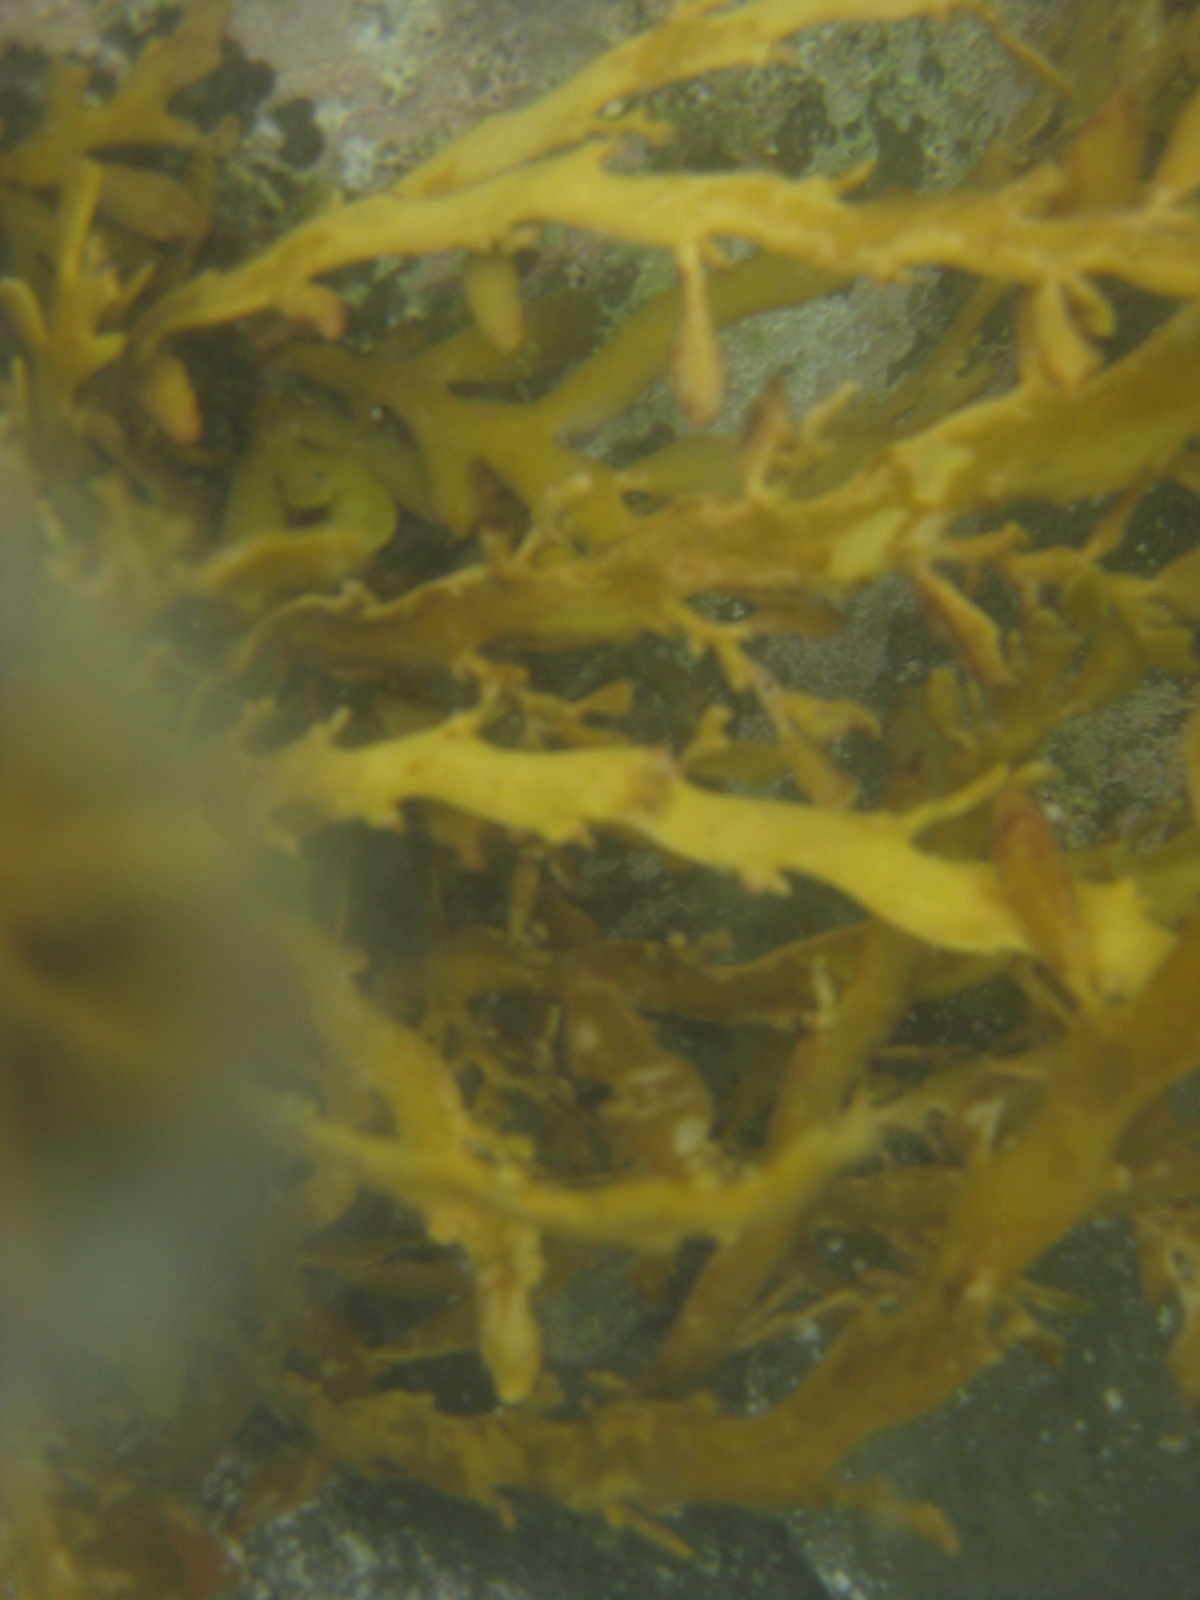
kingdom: Chromista
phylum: Ochrophyta
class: Phaeophyceae
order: Fucales
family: Sargassaceae
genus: Carpophyllum
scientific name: Carpophyllum maschalocarpum
